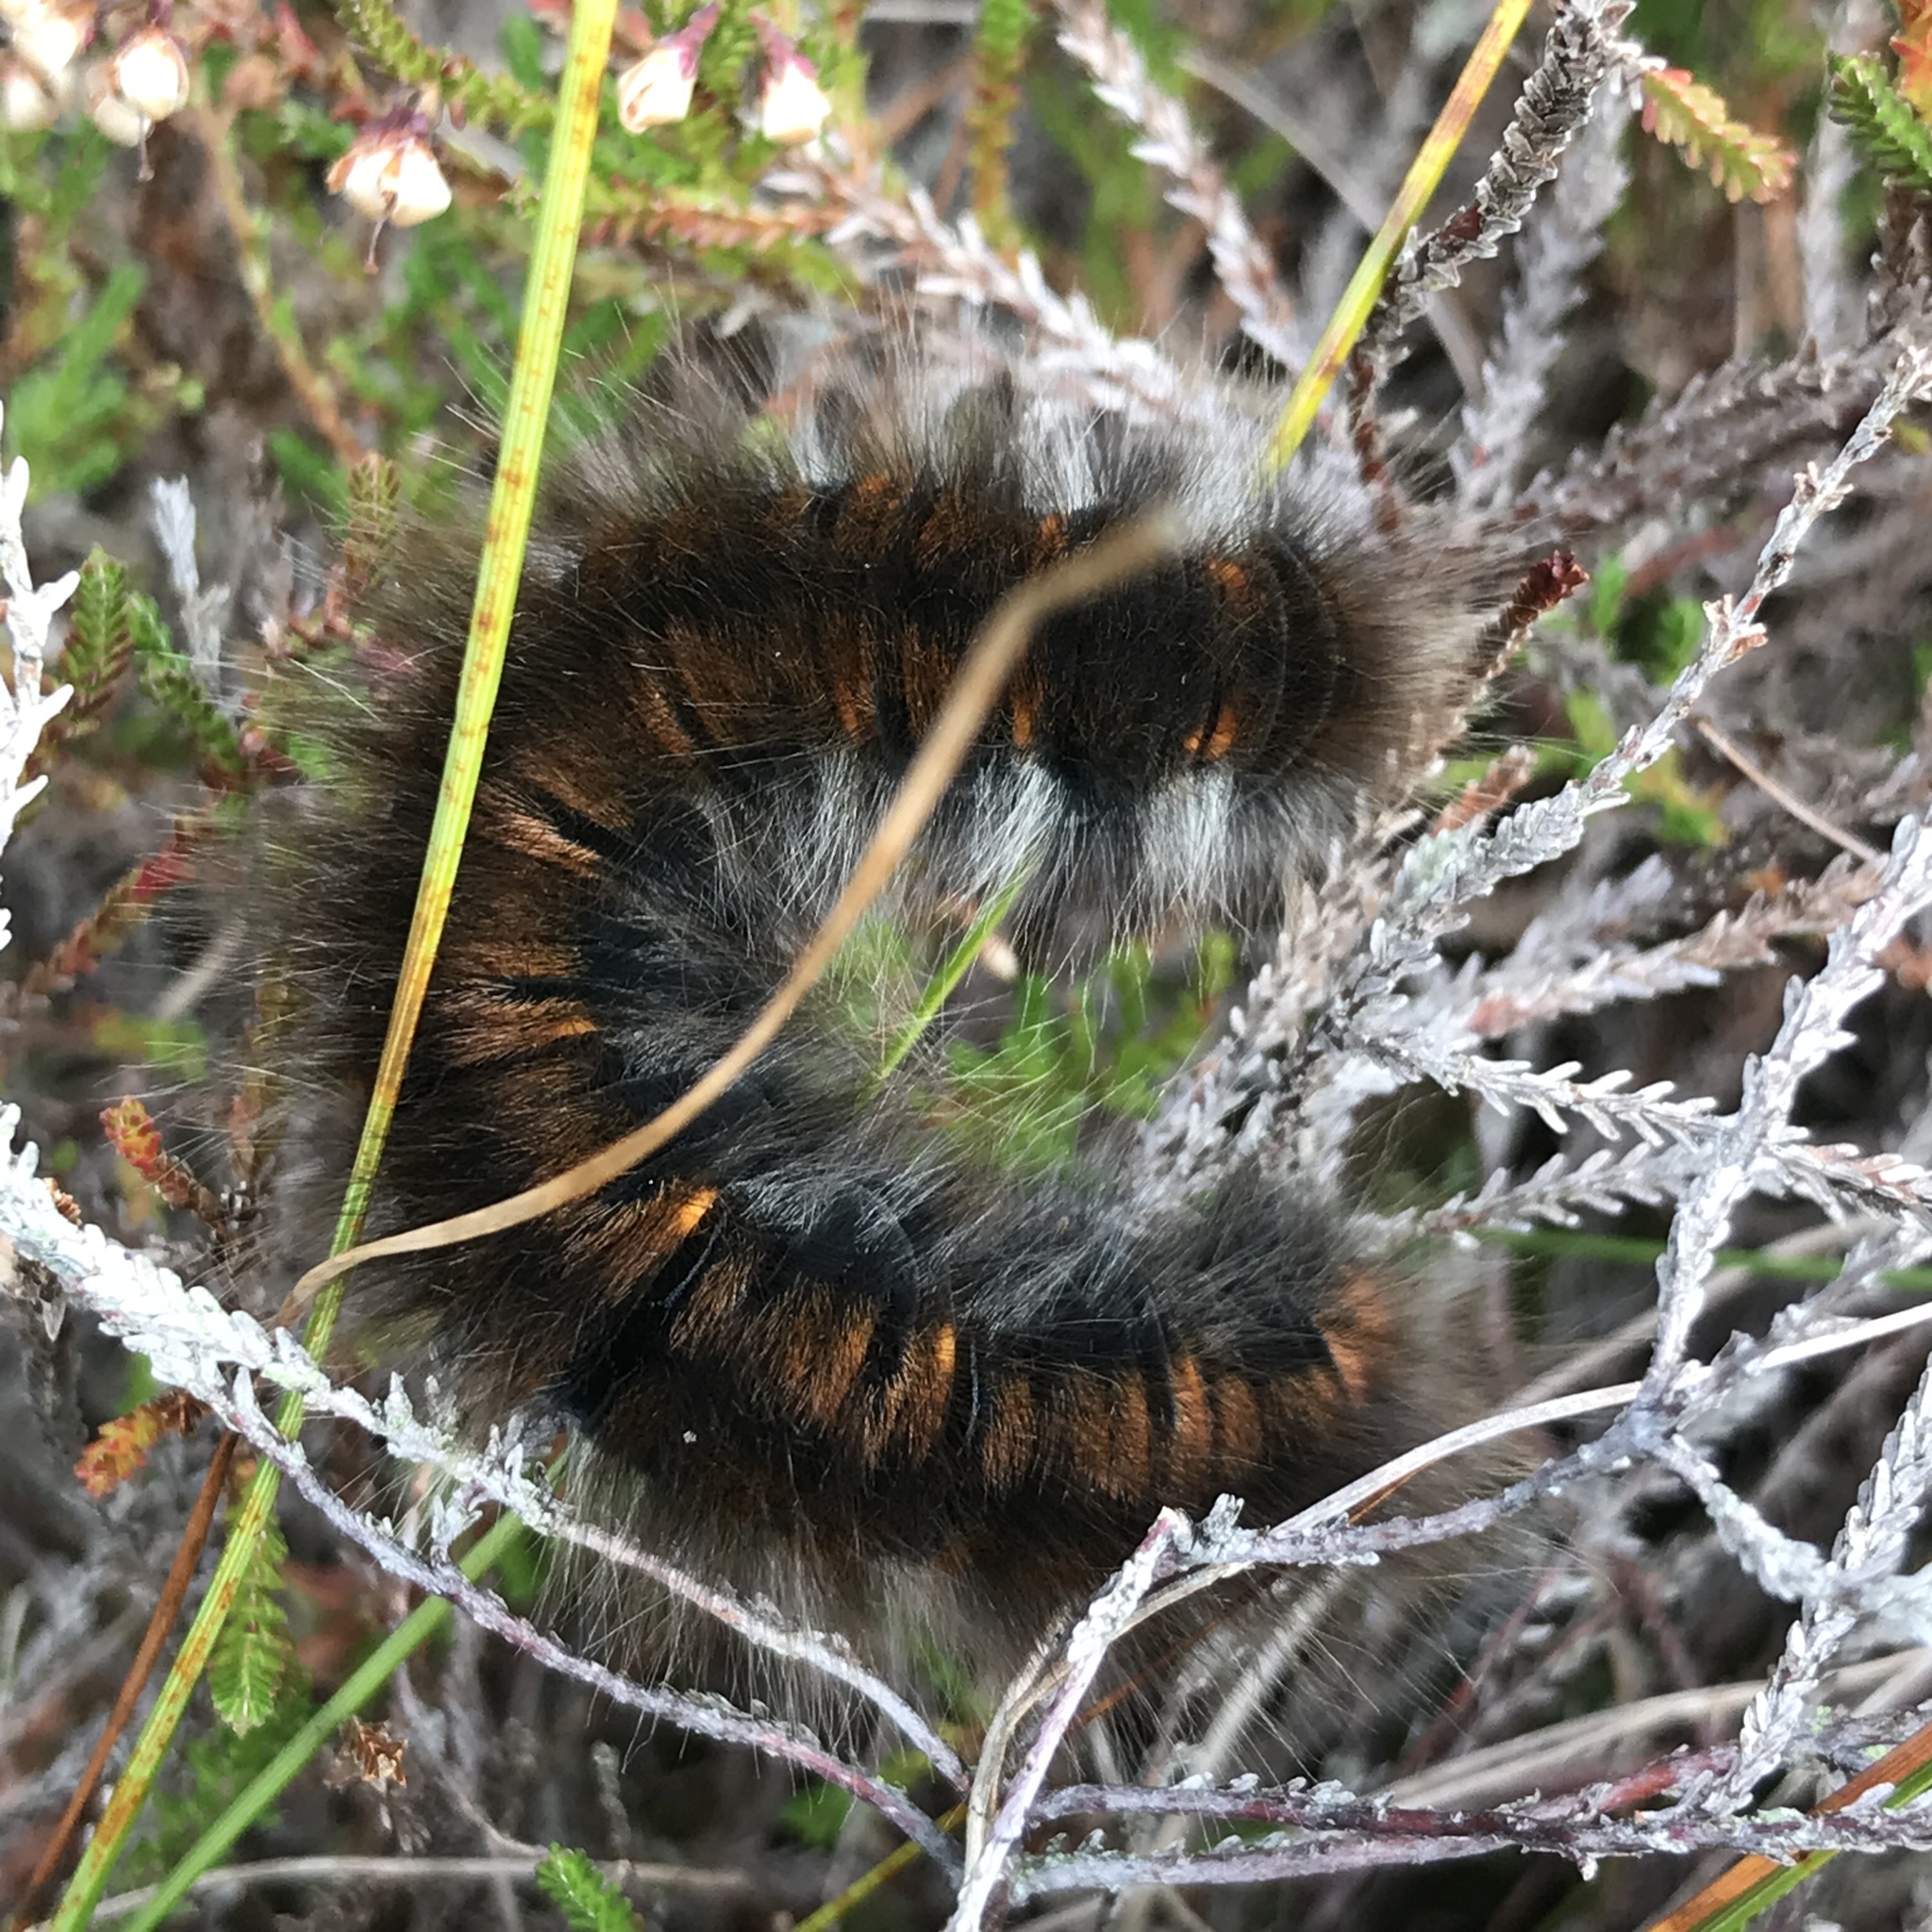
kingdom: Animalia
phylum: Arthropoda
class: Insecta
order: Lepidoptera
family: Lasiocampidae
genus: Macrothylacia
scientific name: Macrothylacia rubi
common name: Fox moth
